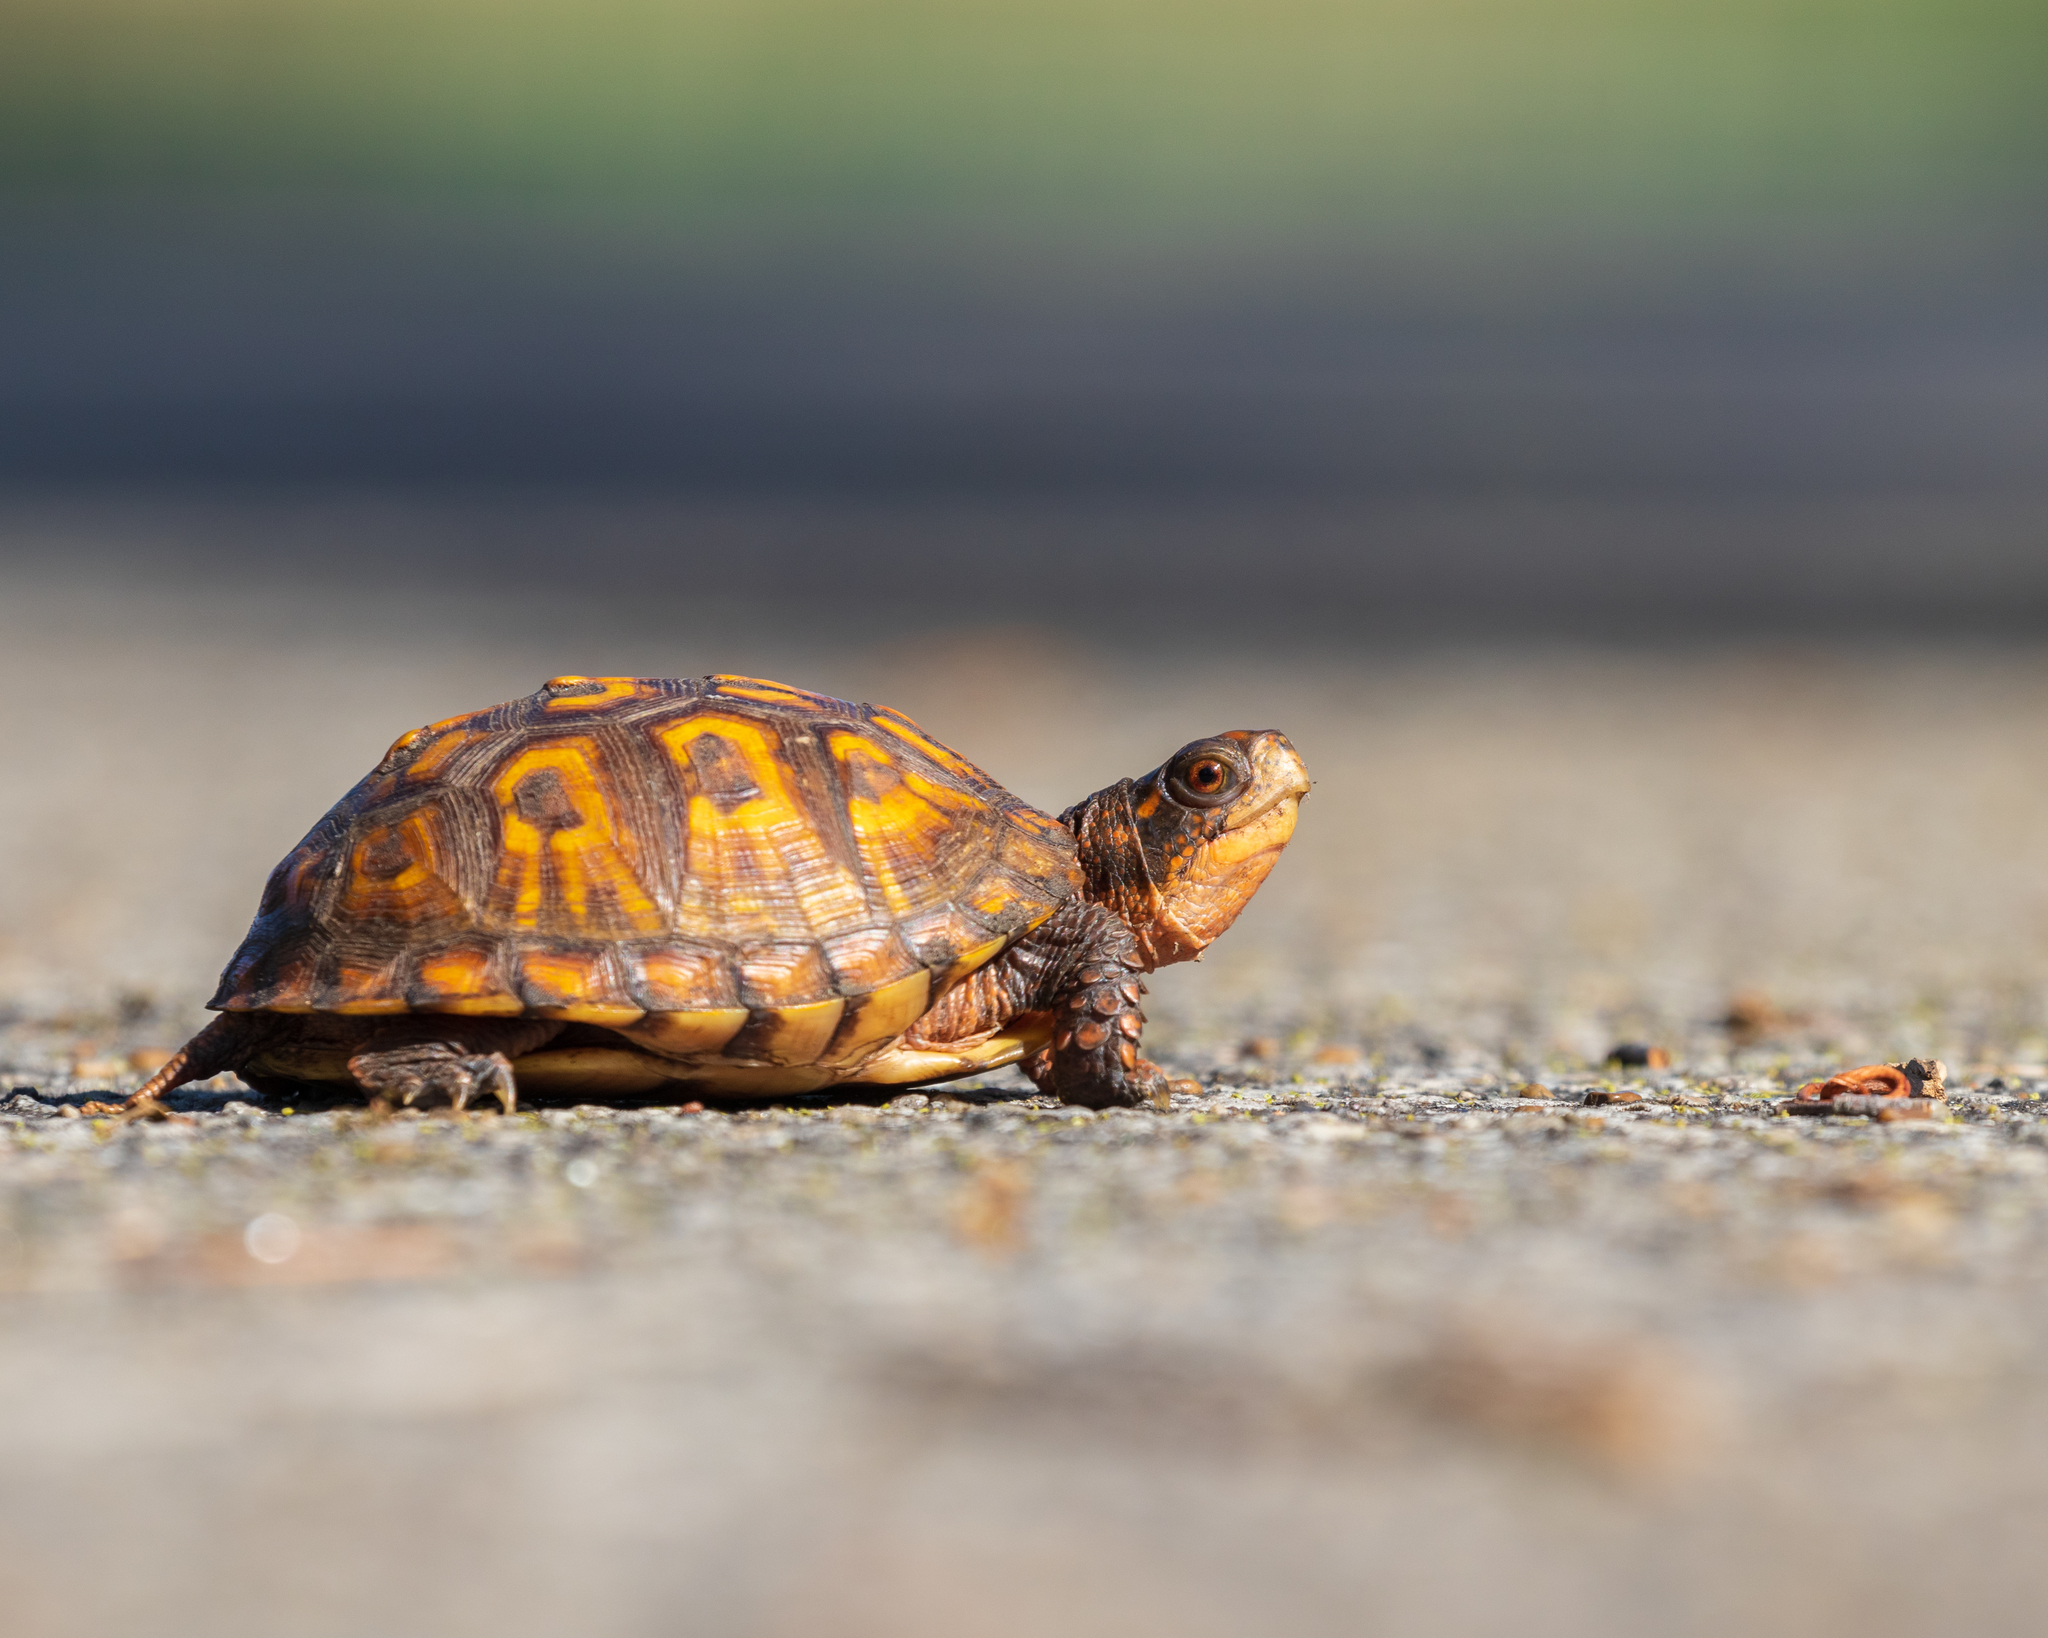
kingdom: Animalia
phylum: Chordata
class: Testudines
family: Emydidae
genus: Terrapene
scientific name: Terrapene carolina
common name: Common box turtle
